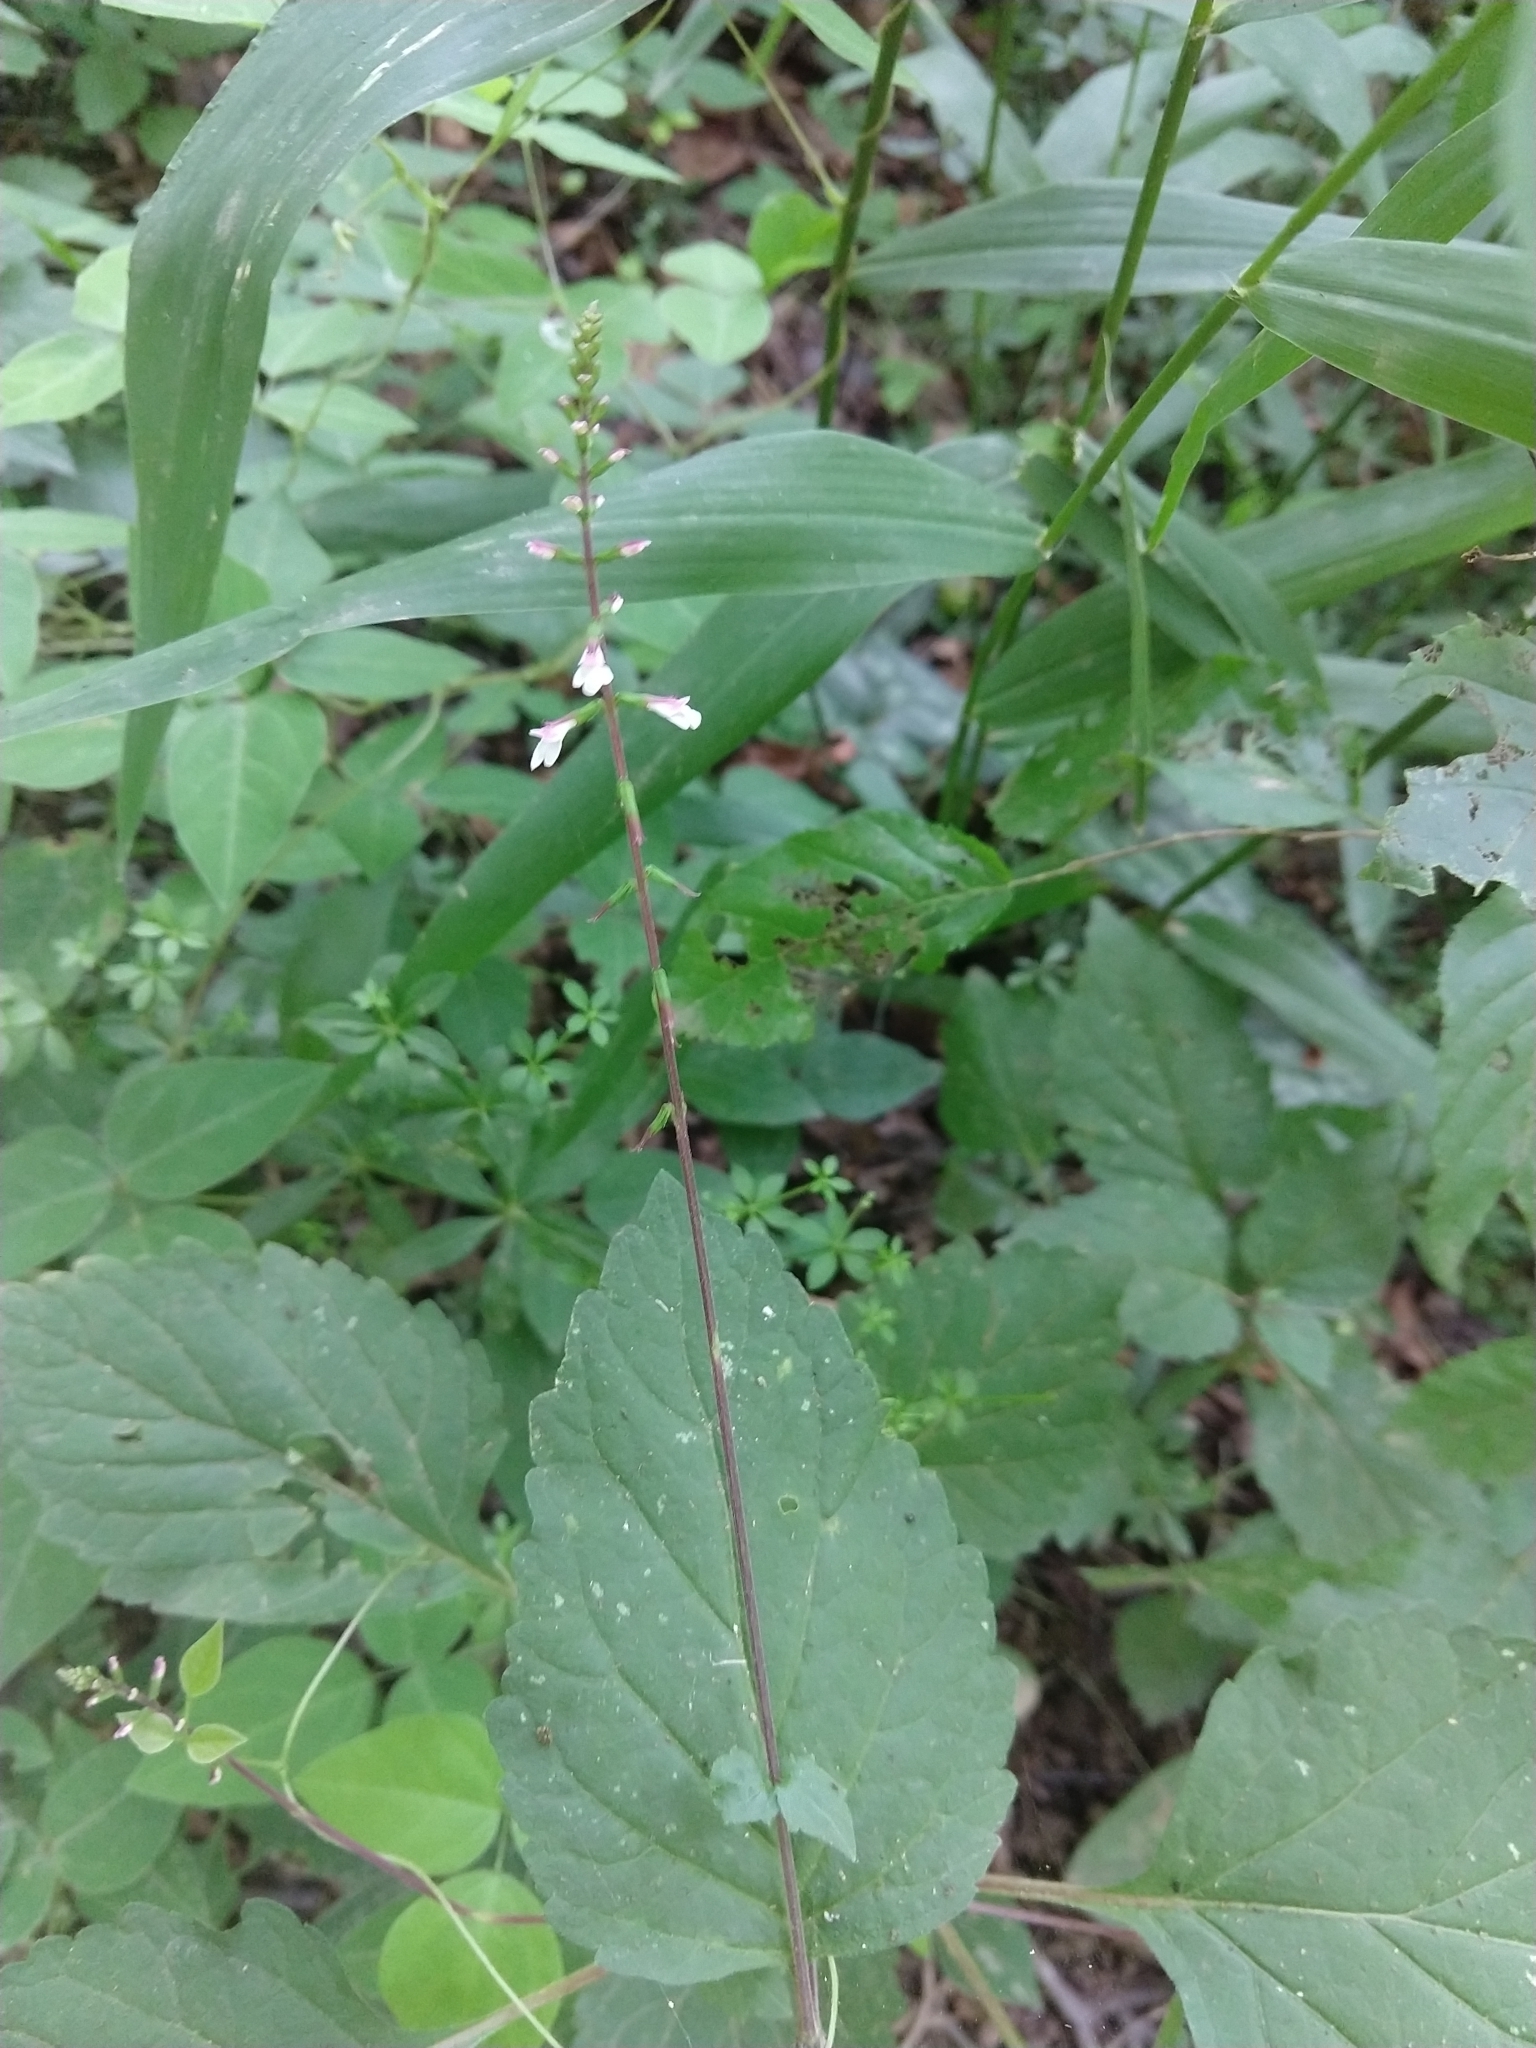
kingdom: Plantae
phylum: Tracheophyta
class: Magnoliopsida
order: Lamiales
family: Phrymaceae
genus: Phryma
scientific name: Phryma leptostachya
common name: American lopseed
